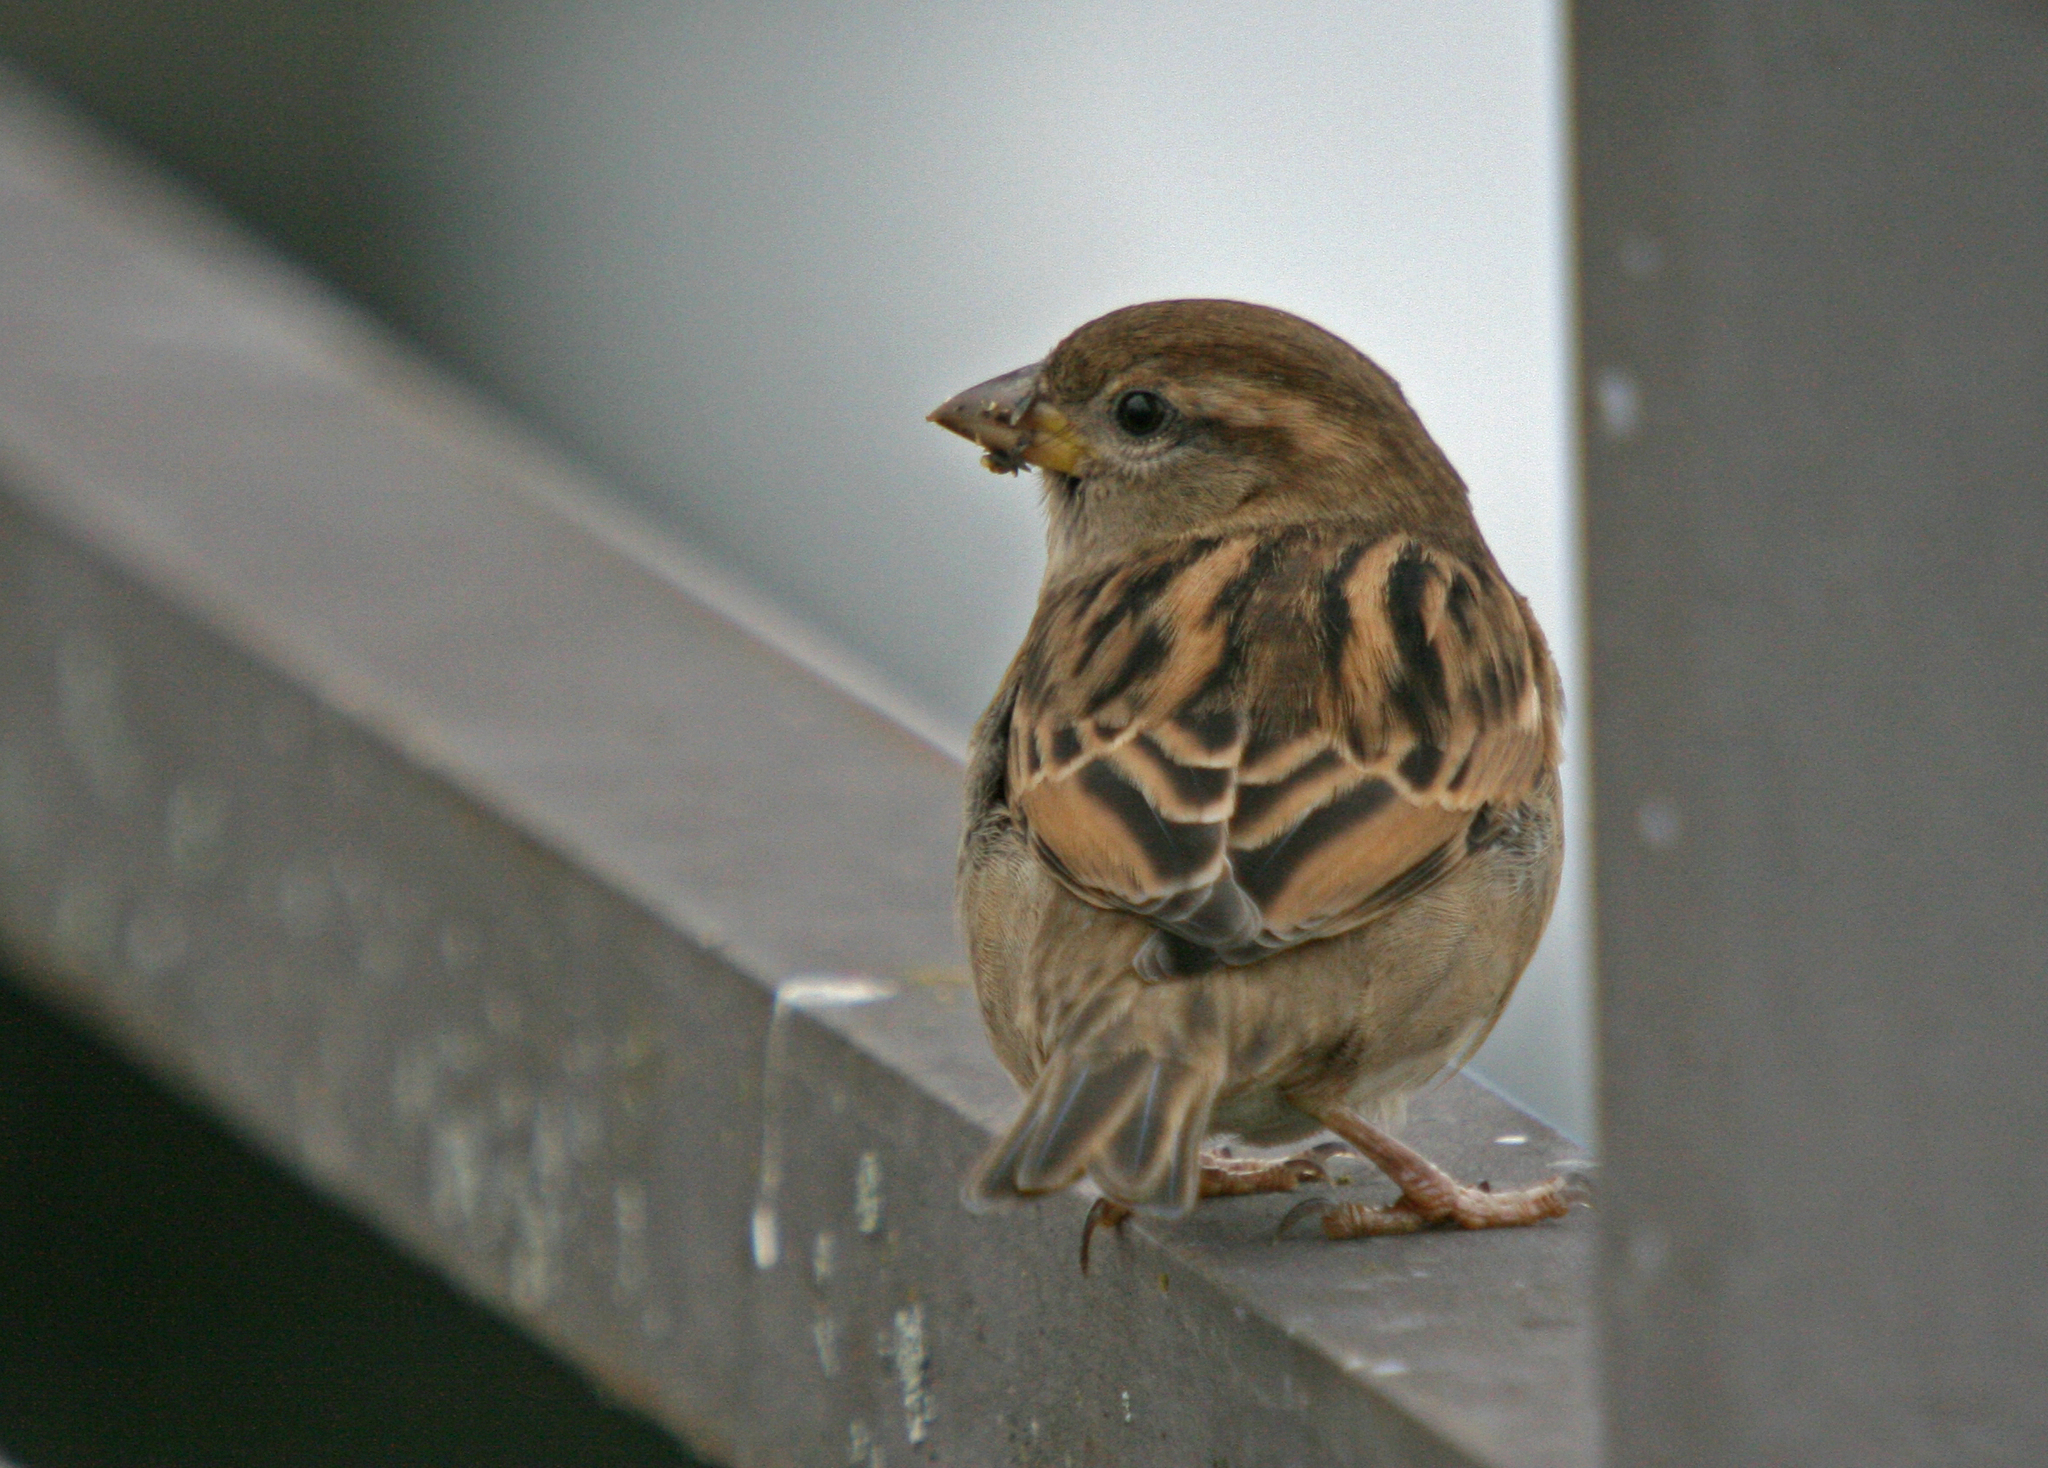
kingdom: Animalia
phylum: Chordata
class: Aves
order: Passeriformes
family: Passeridae
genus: Passer
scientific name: Passer domesticus
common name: House sparrow
